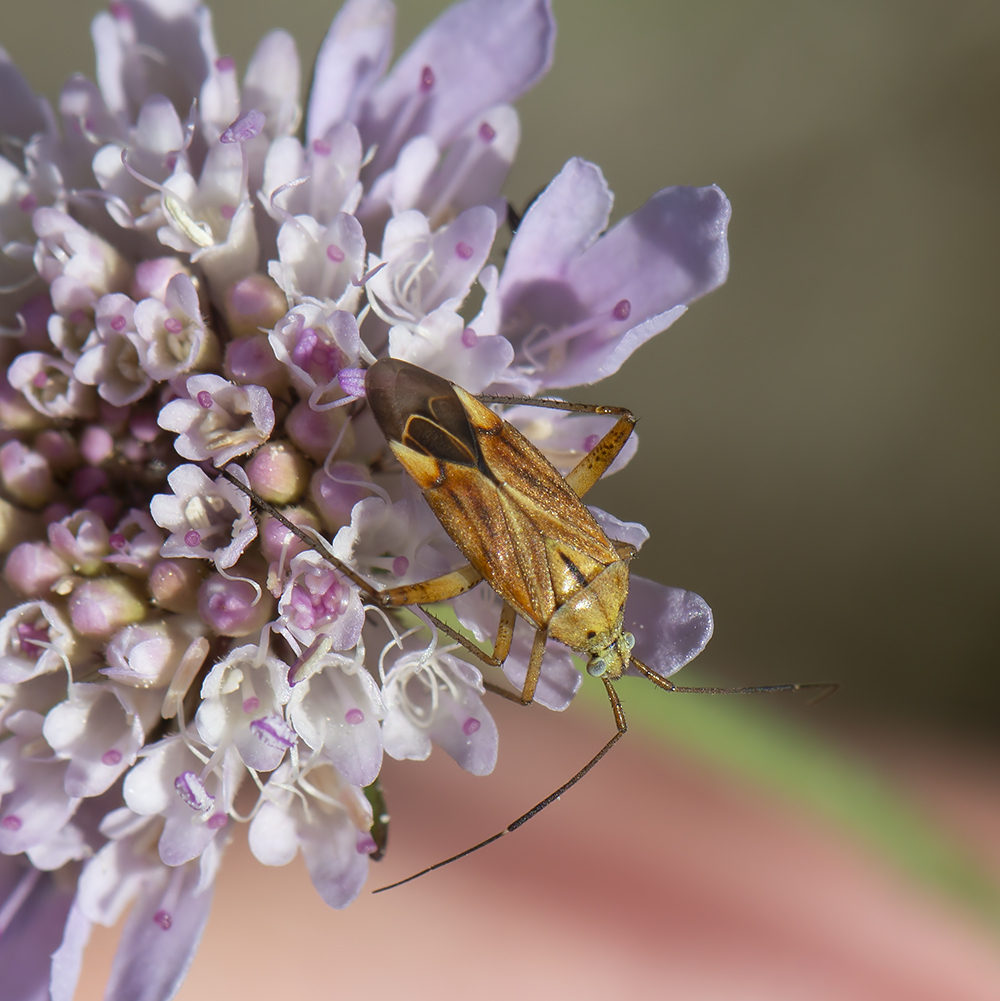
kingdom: Animalia
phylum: Arthropoda
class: Insecta
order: Hemiptera
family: Miridae
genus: Closterotomus
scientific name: Closterotomus krueperi
